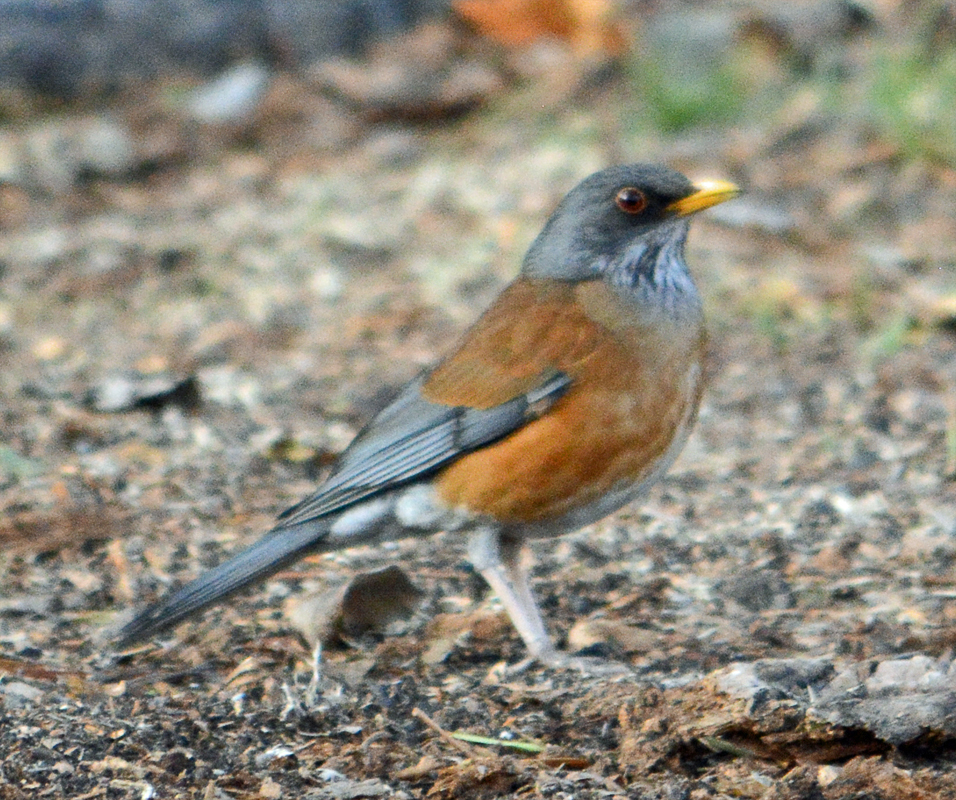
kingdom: Animalia
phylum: Chordata
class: Aves
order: Passeriformes
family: Turdidae
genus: Turdus
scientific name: Turdus rufopalliatus
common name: Rufous-backed robin
